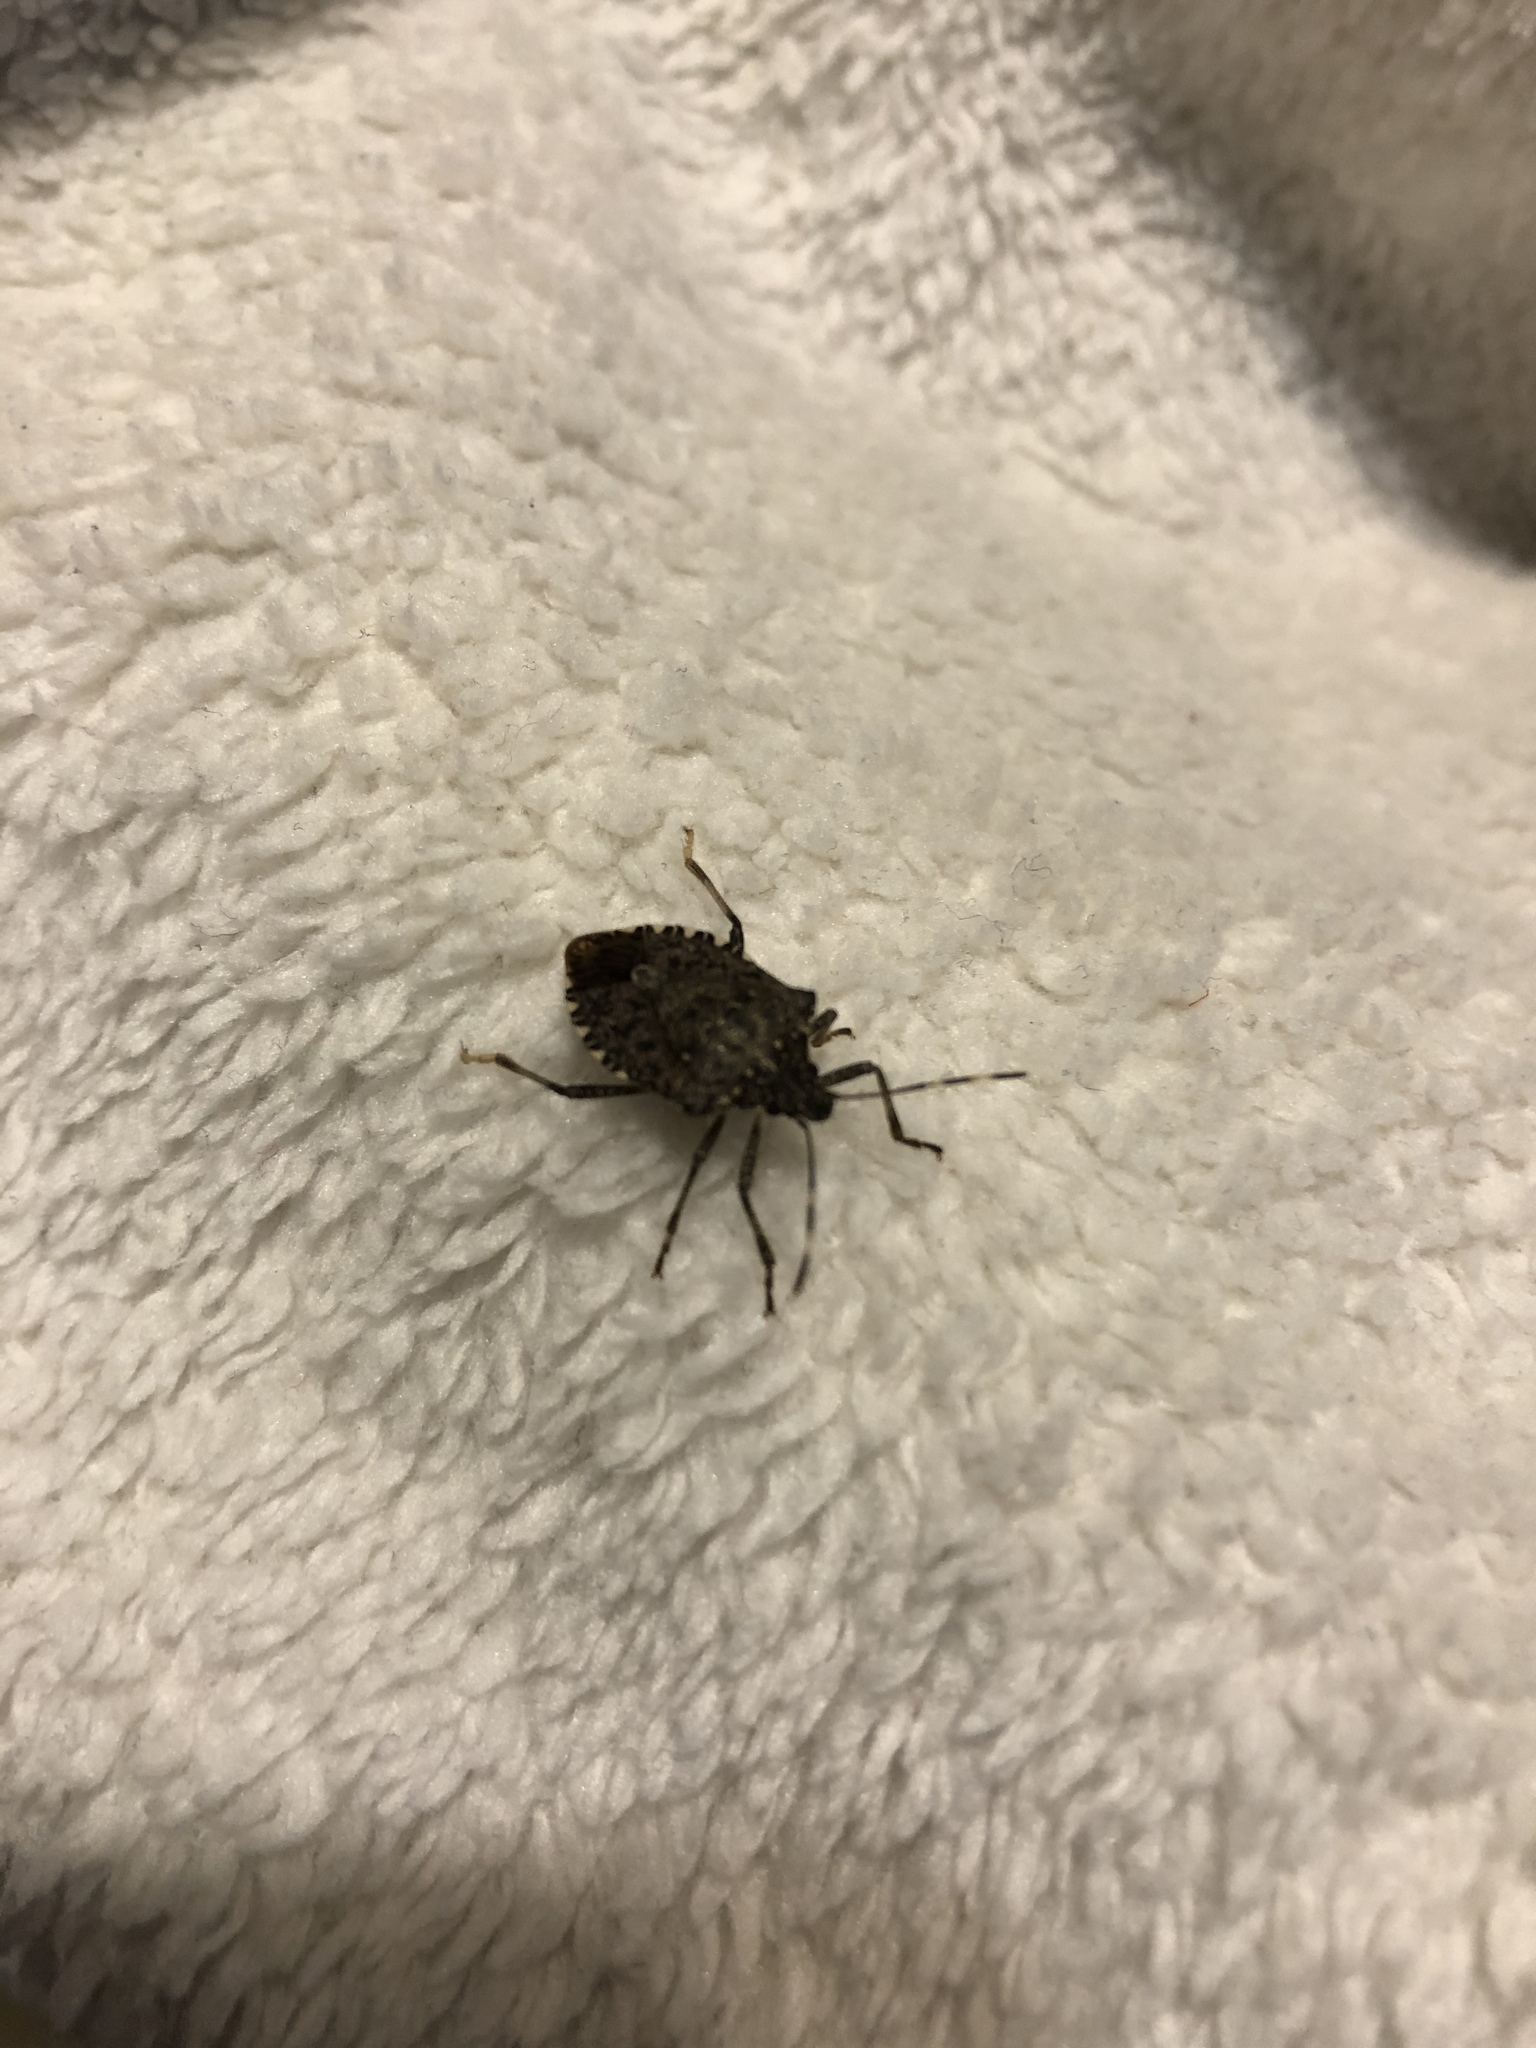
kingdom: Animalia
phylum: Arthropoda
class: Insecta
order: Hemiptera
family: Pentatomidae
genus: Halyomorpha
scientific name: Halyomorpha halys
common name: Brown marmorated stink bug
